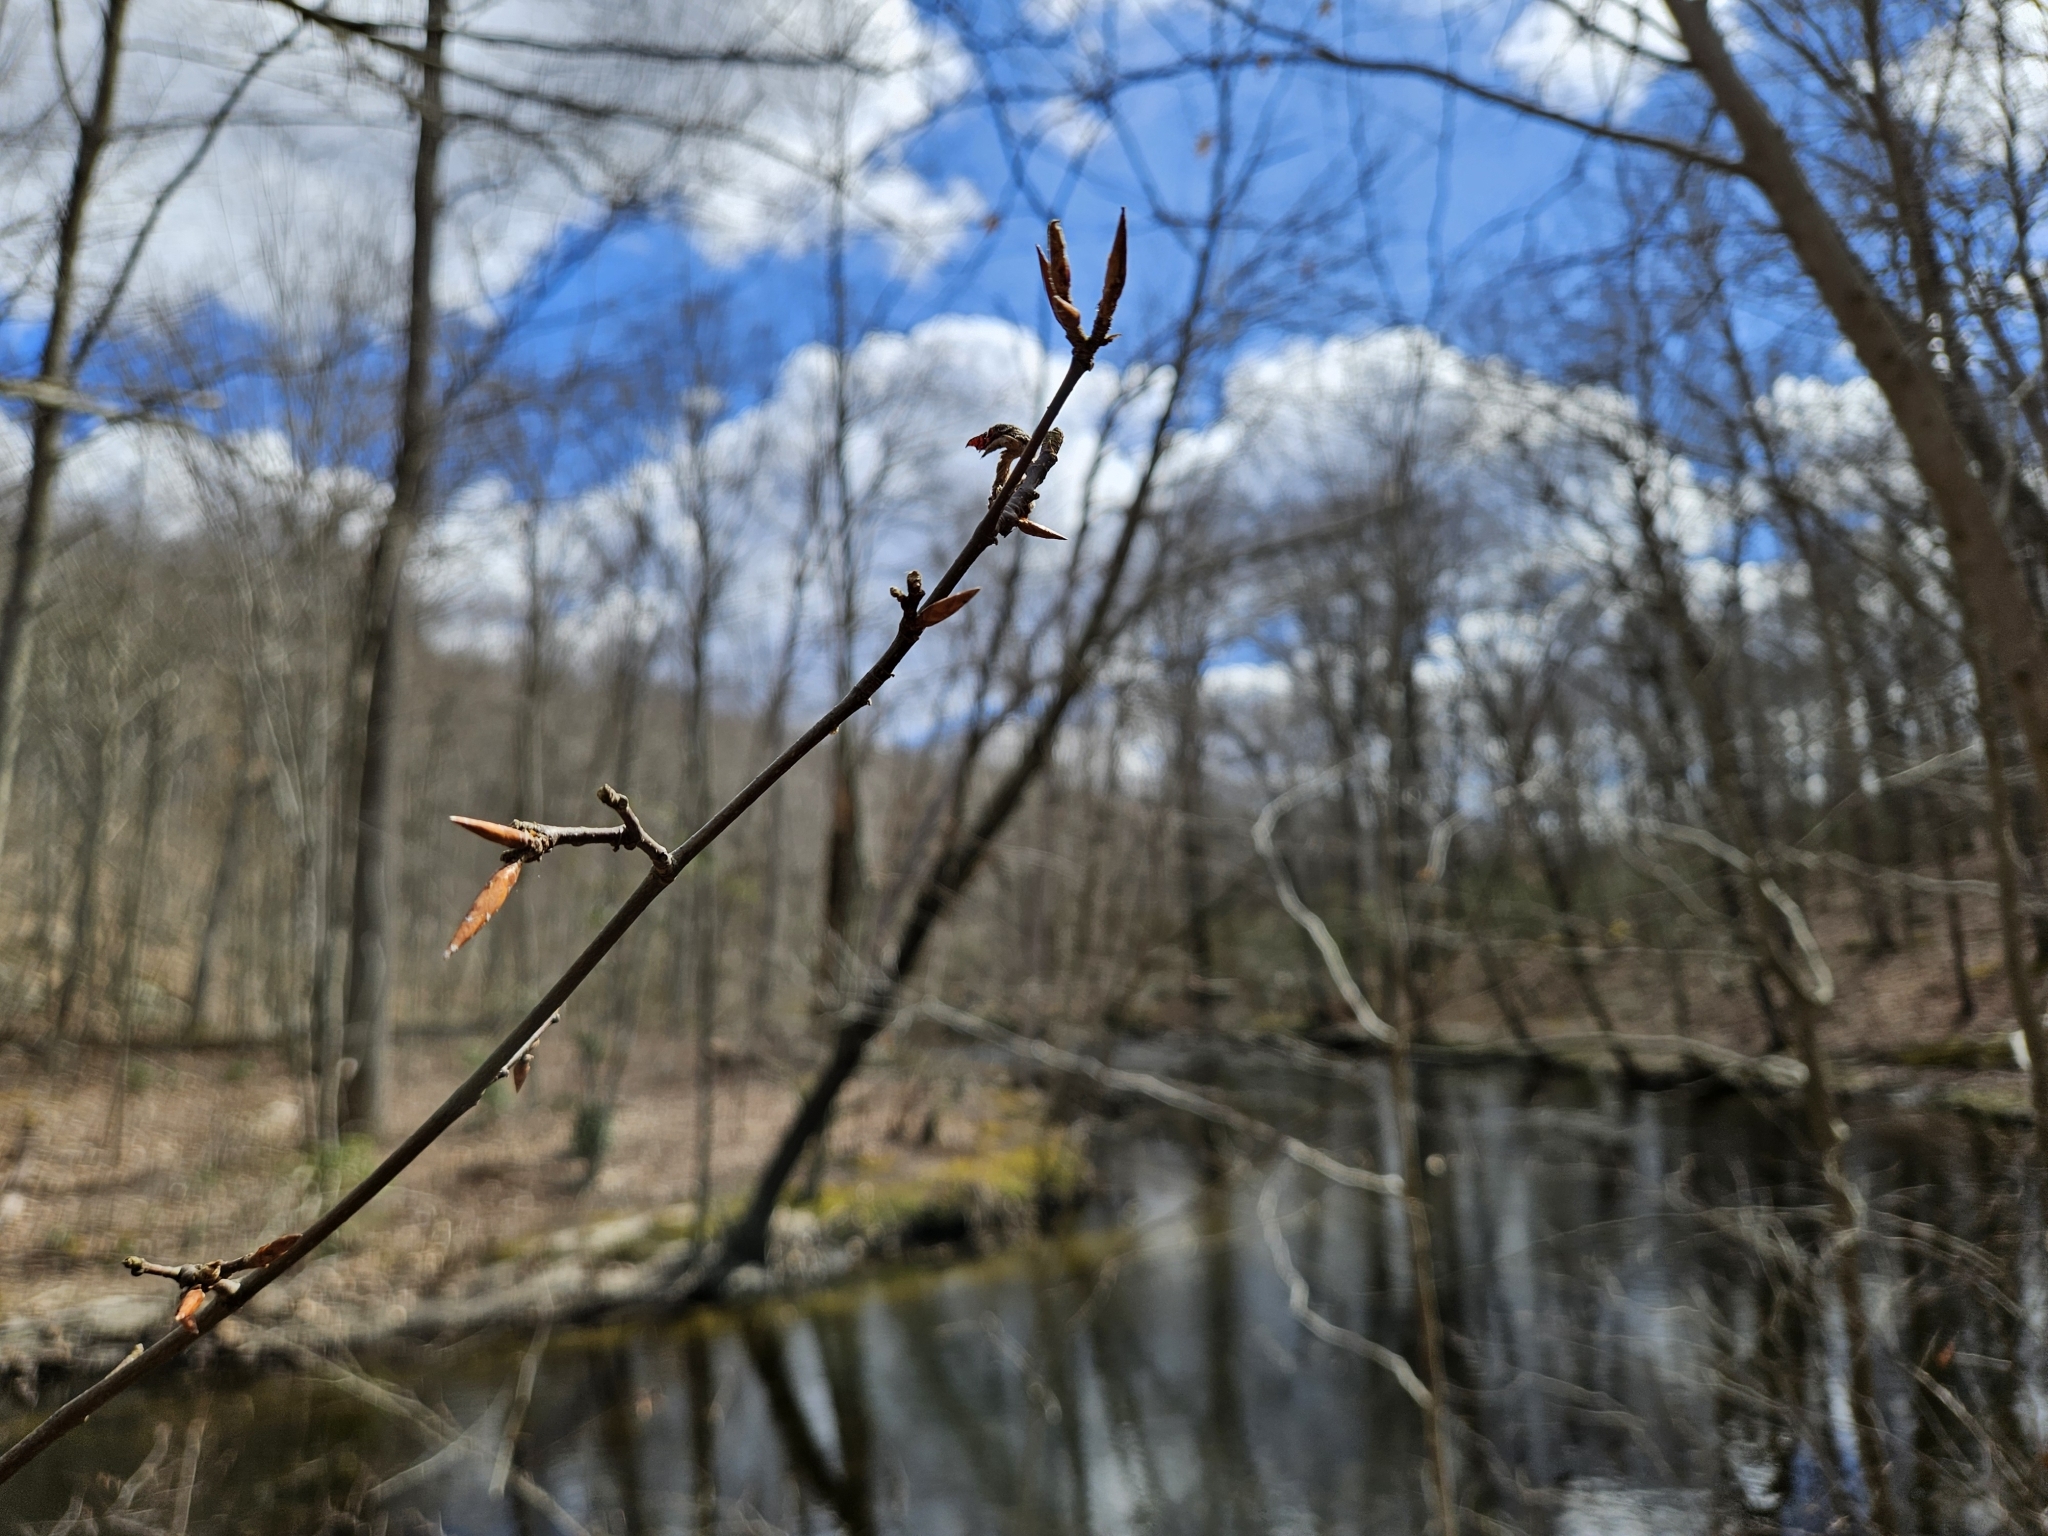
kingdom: Plantae
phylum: Tracheophyta
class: Magnoliopsida
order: Fagales
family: Fagaceae
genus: Fagus
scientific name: Fagus grandifolia
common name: American beech
